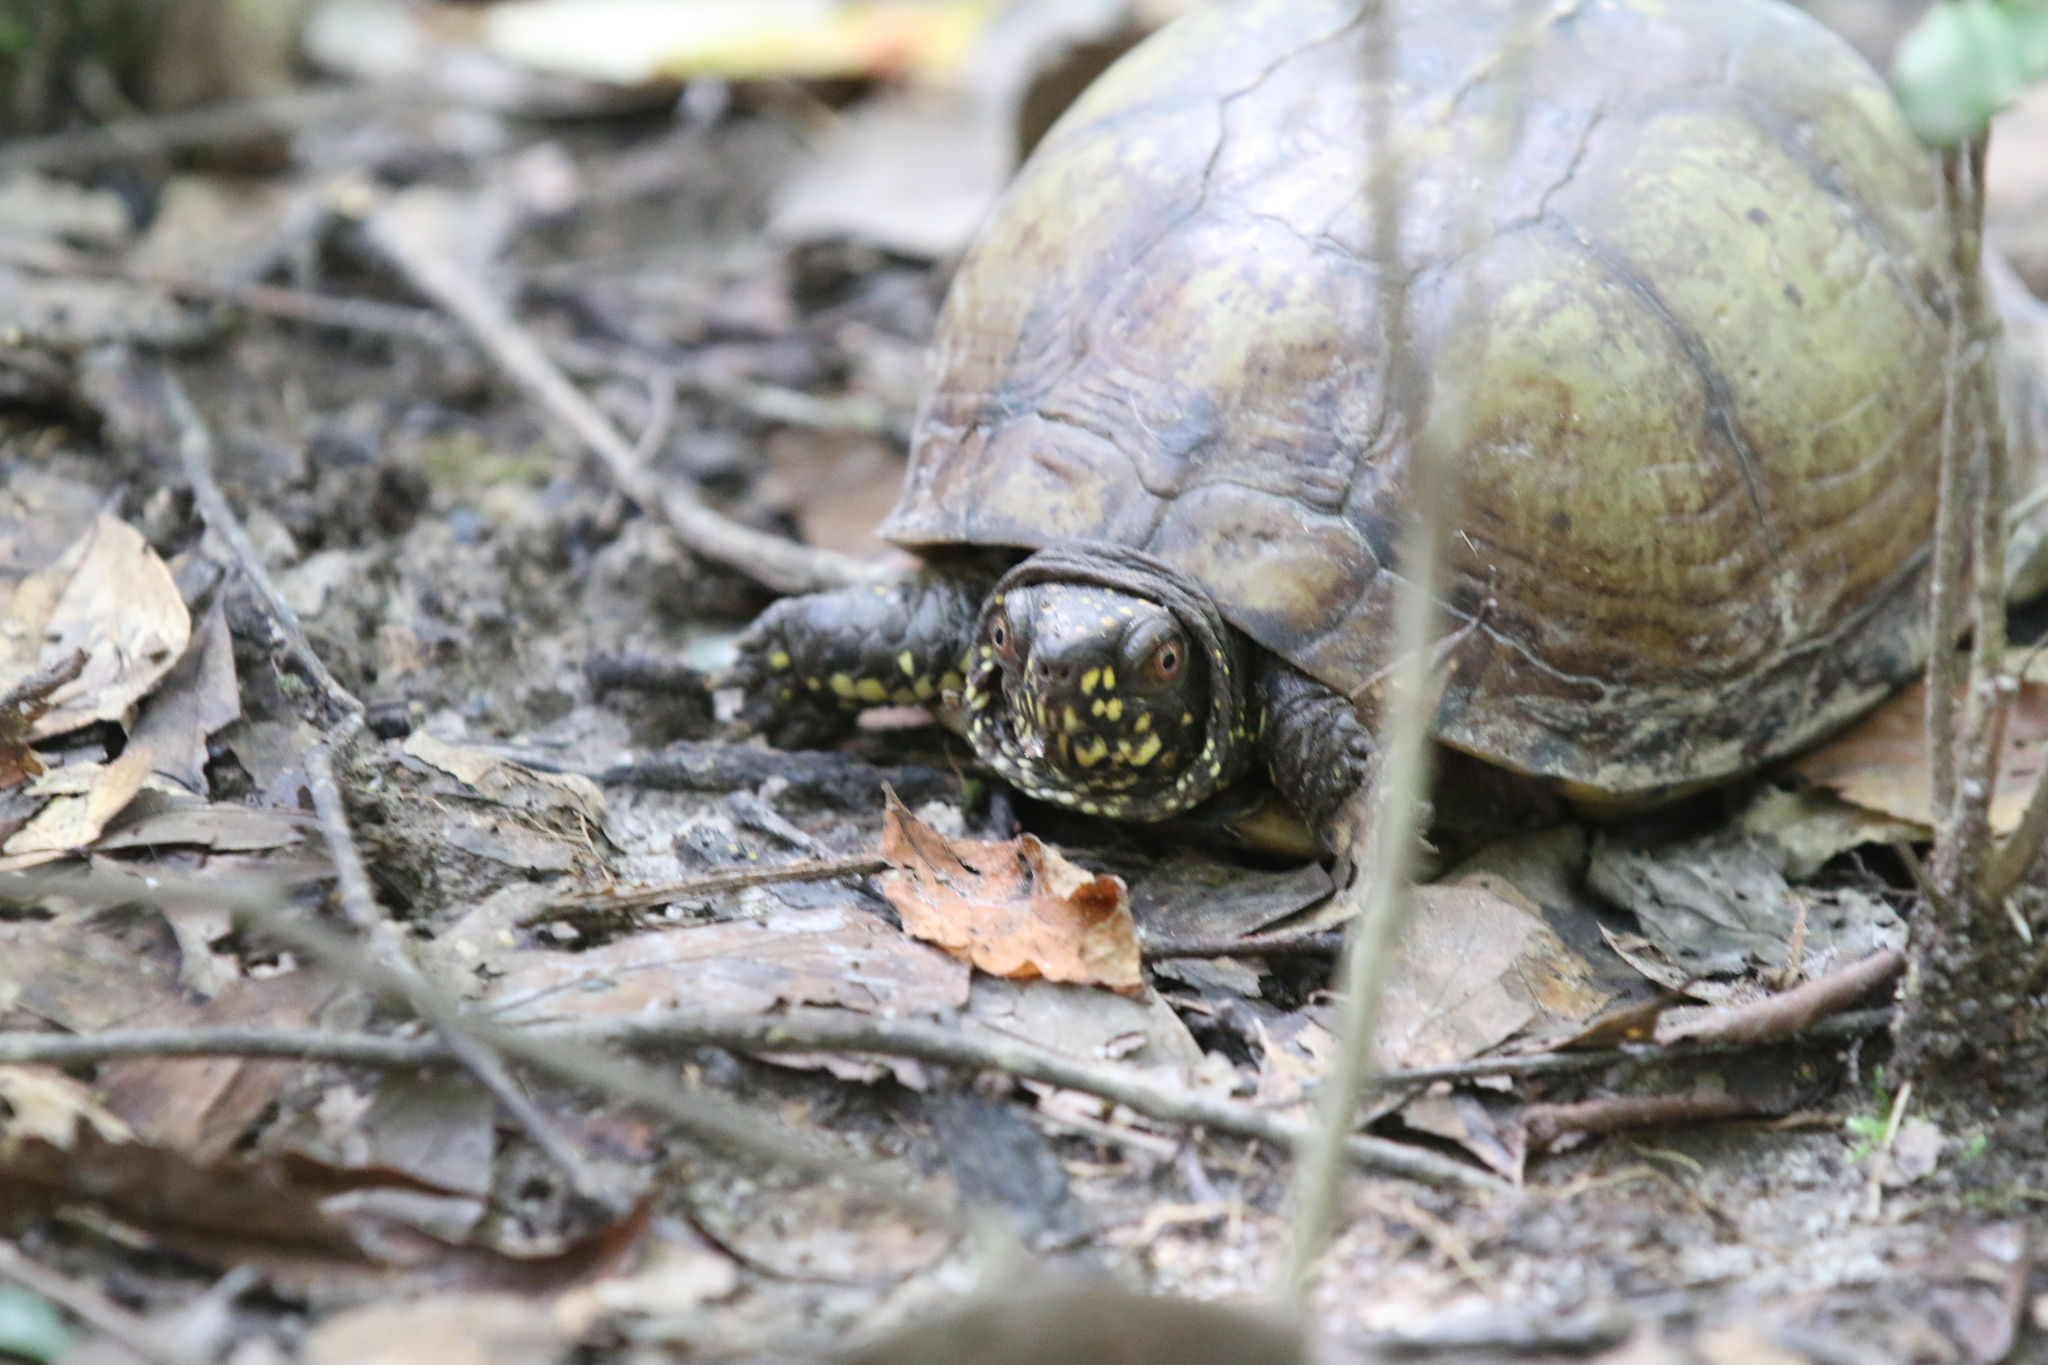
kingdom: Animalia
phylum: Chordata
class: Testudines
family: Emydidae
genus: Terrapene
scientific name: Terrapene carolina
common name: Common box turtle
